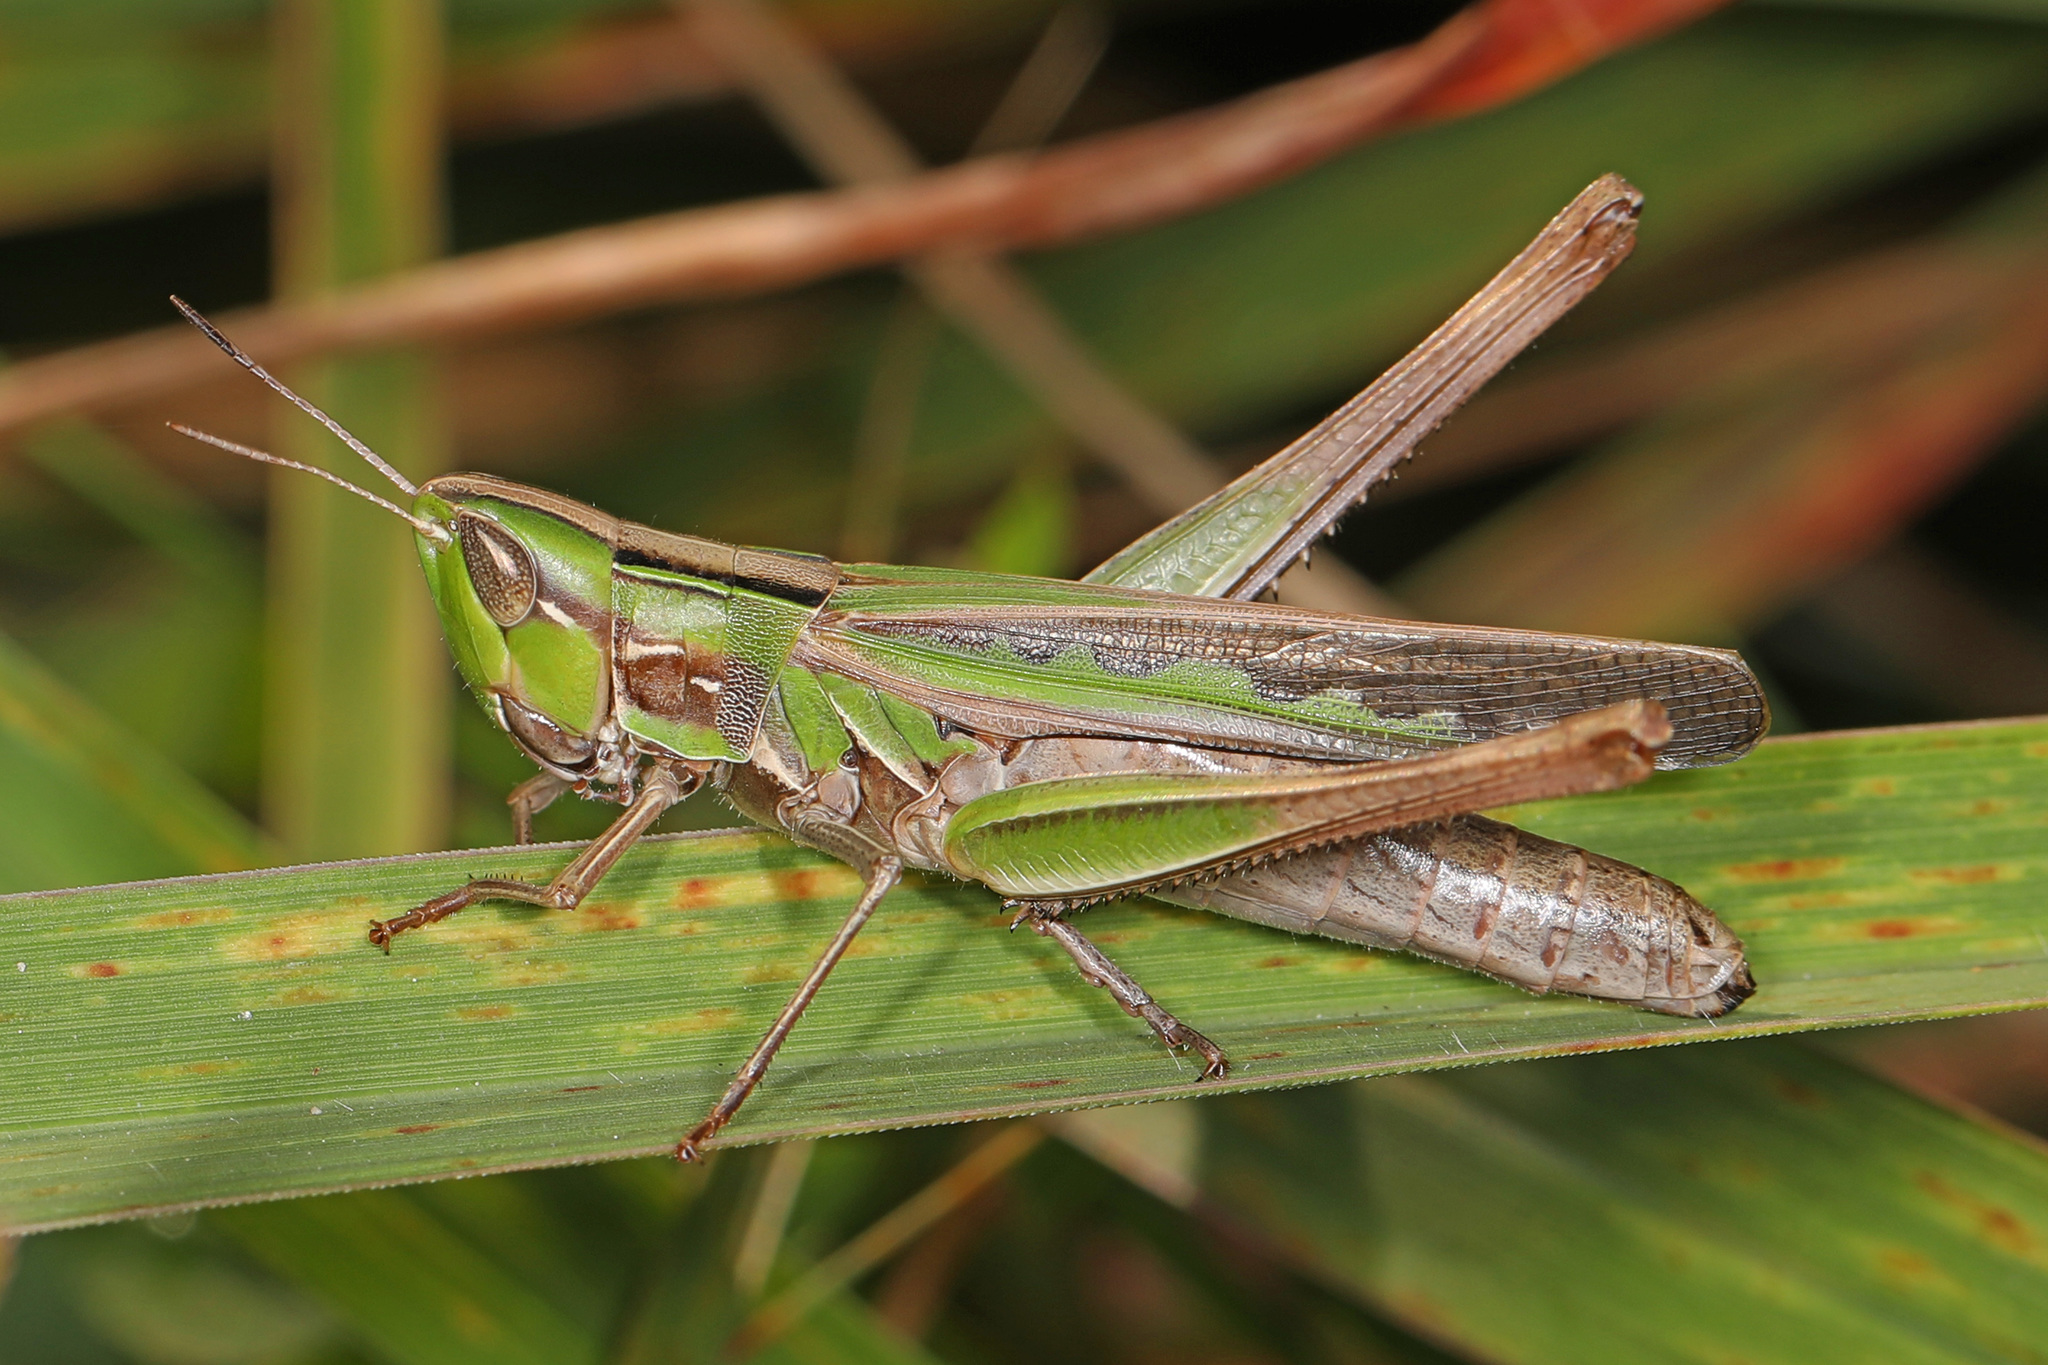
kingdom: Animalia
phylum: Arthropoda
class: Insecta
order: Orthoptera
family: Acrididae
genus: Syrbula
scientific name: Syrbula admirabilis
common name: Handsome grasshopper
